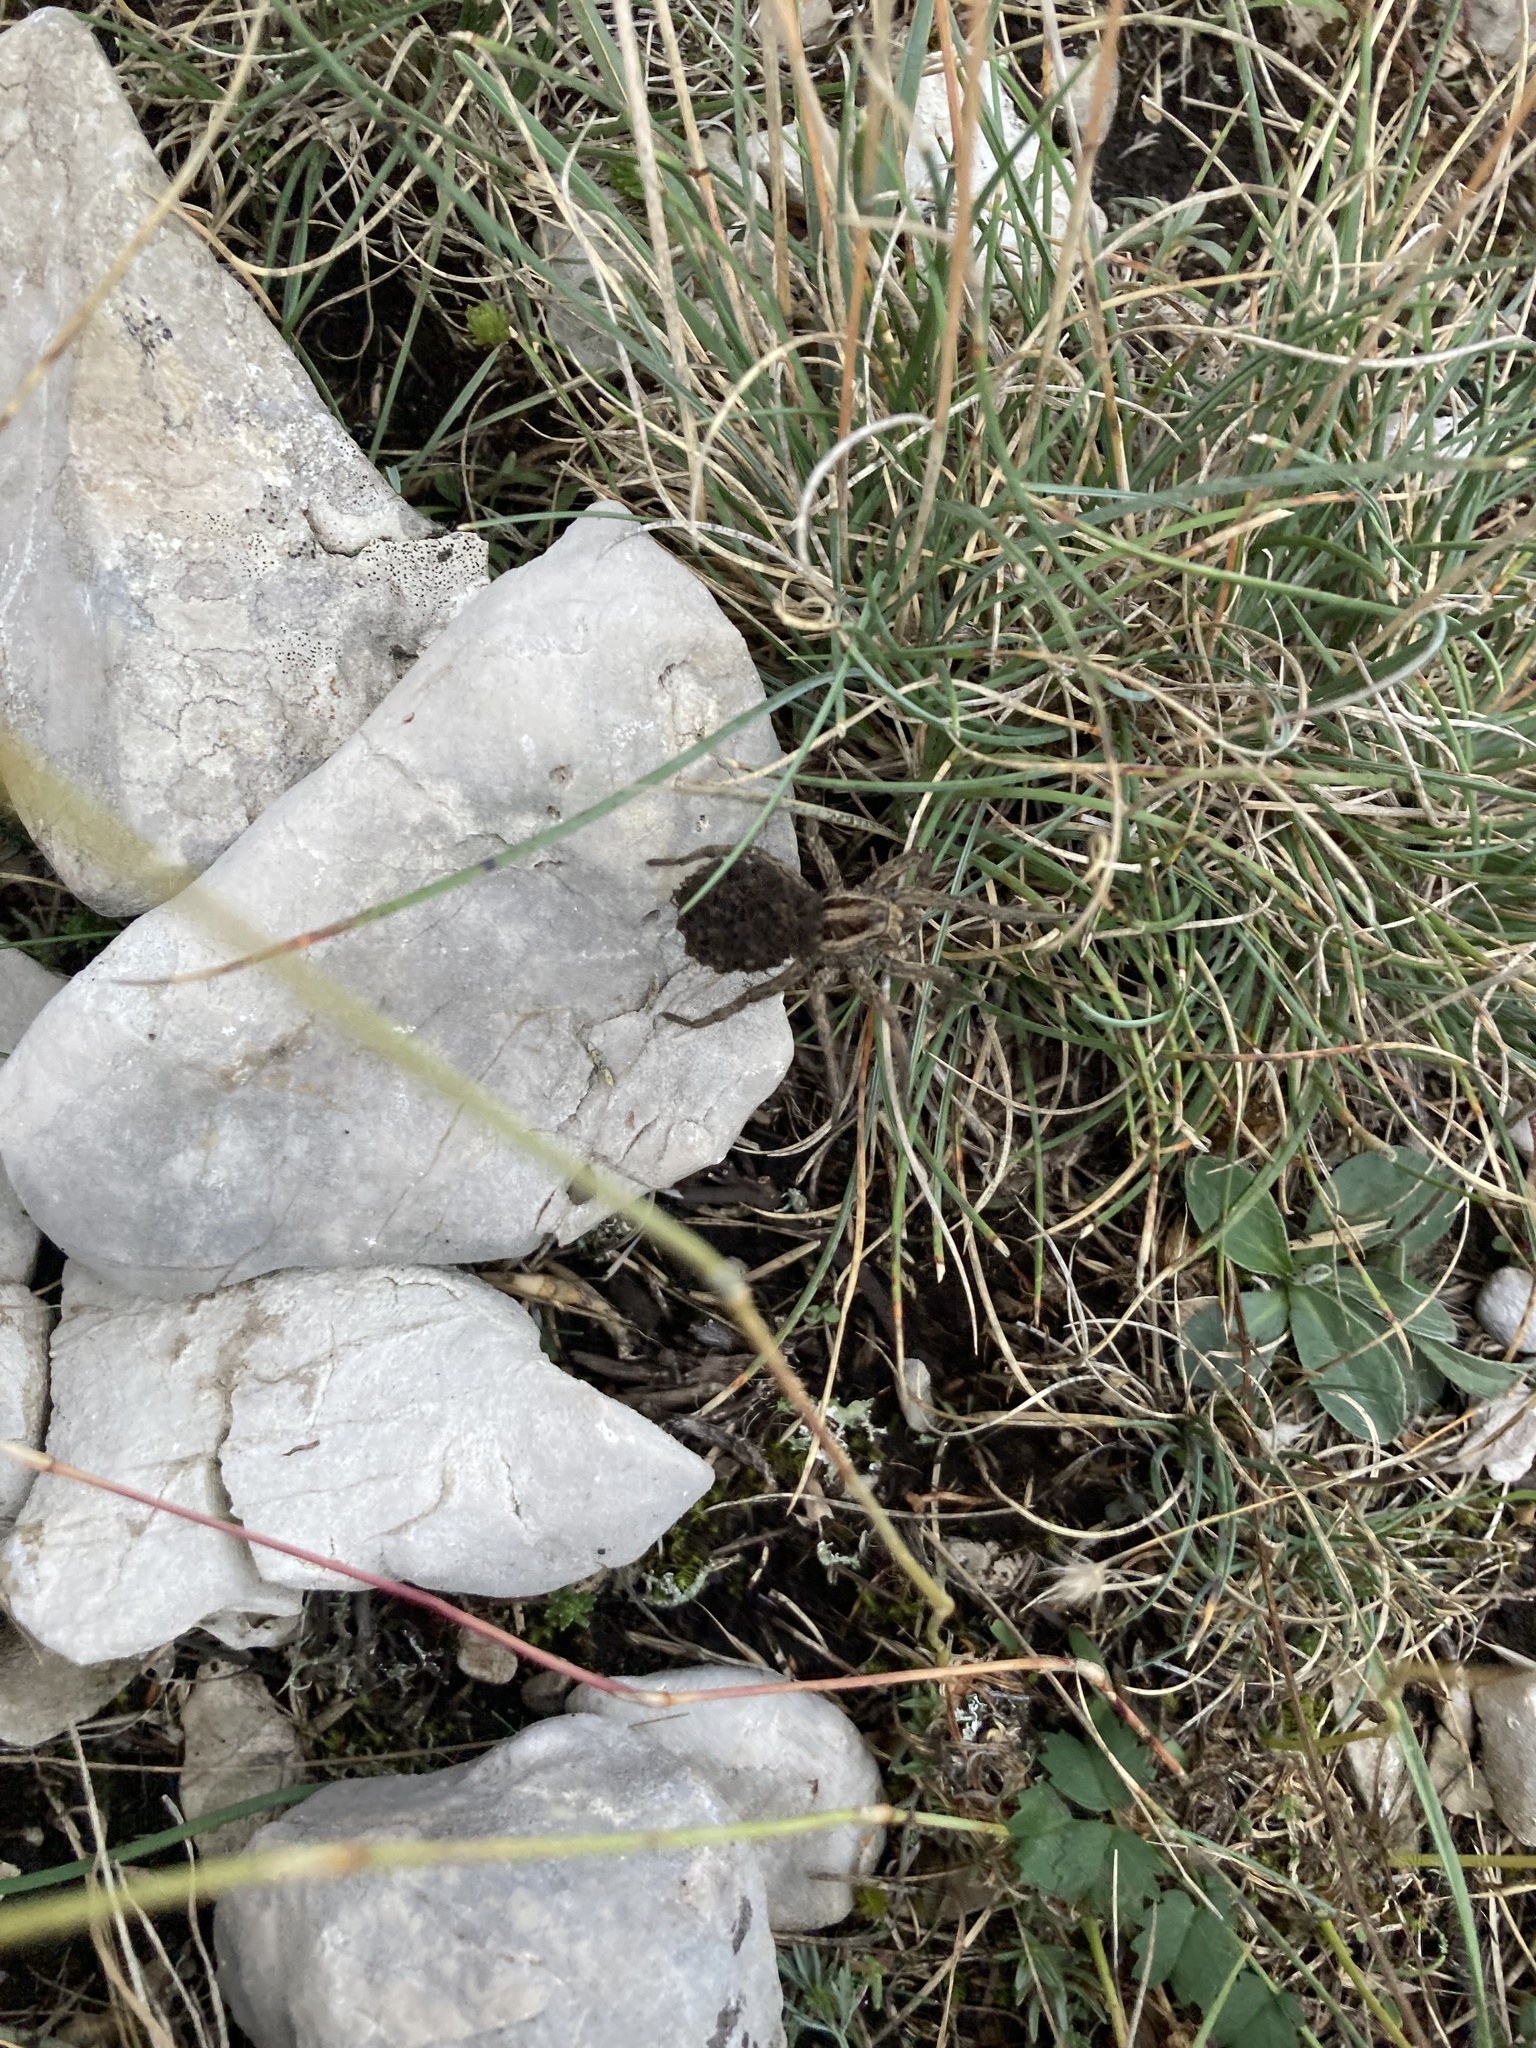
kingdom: Animalia
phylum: Arthropoda
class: Arachnida
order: Araneae
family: Lycosidae
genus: Hogna
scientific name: Hogna radiata
